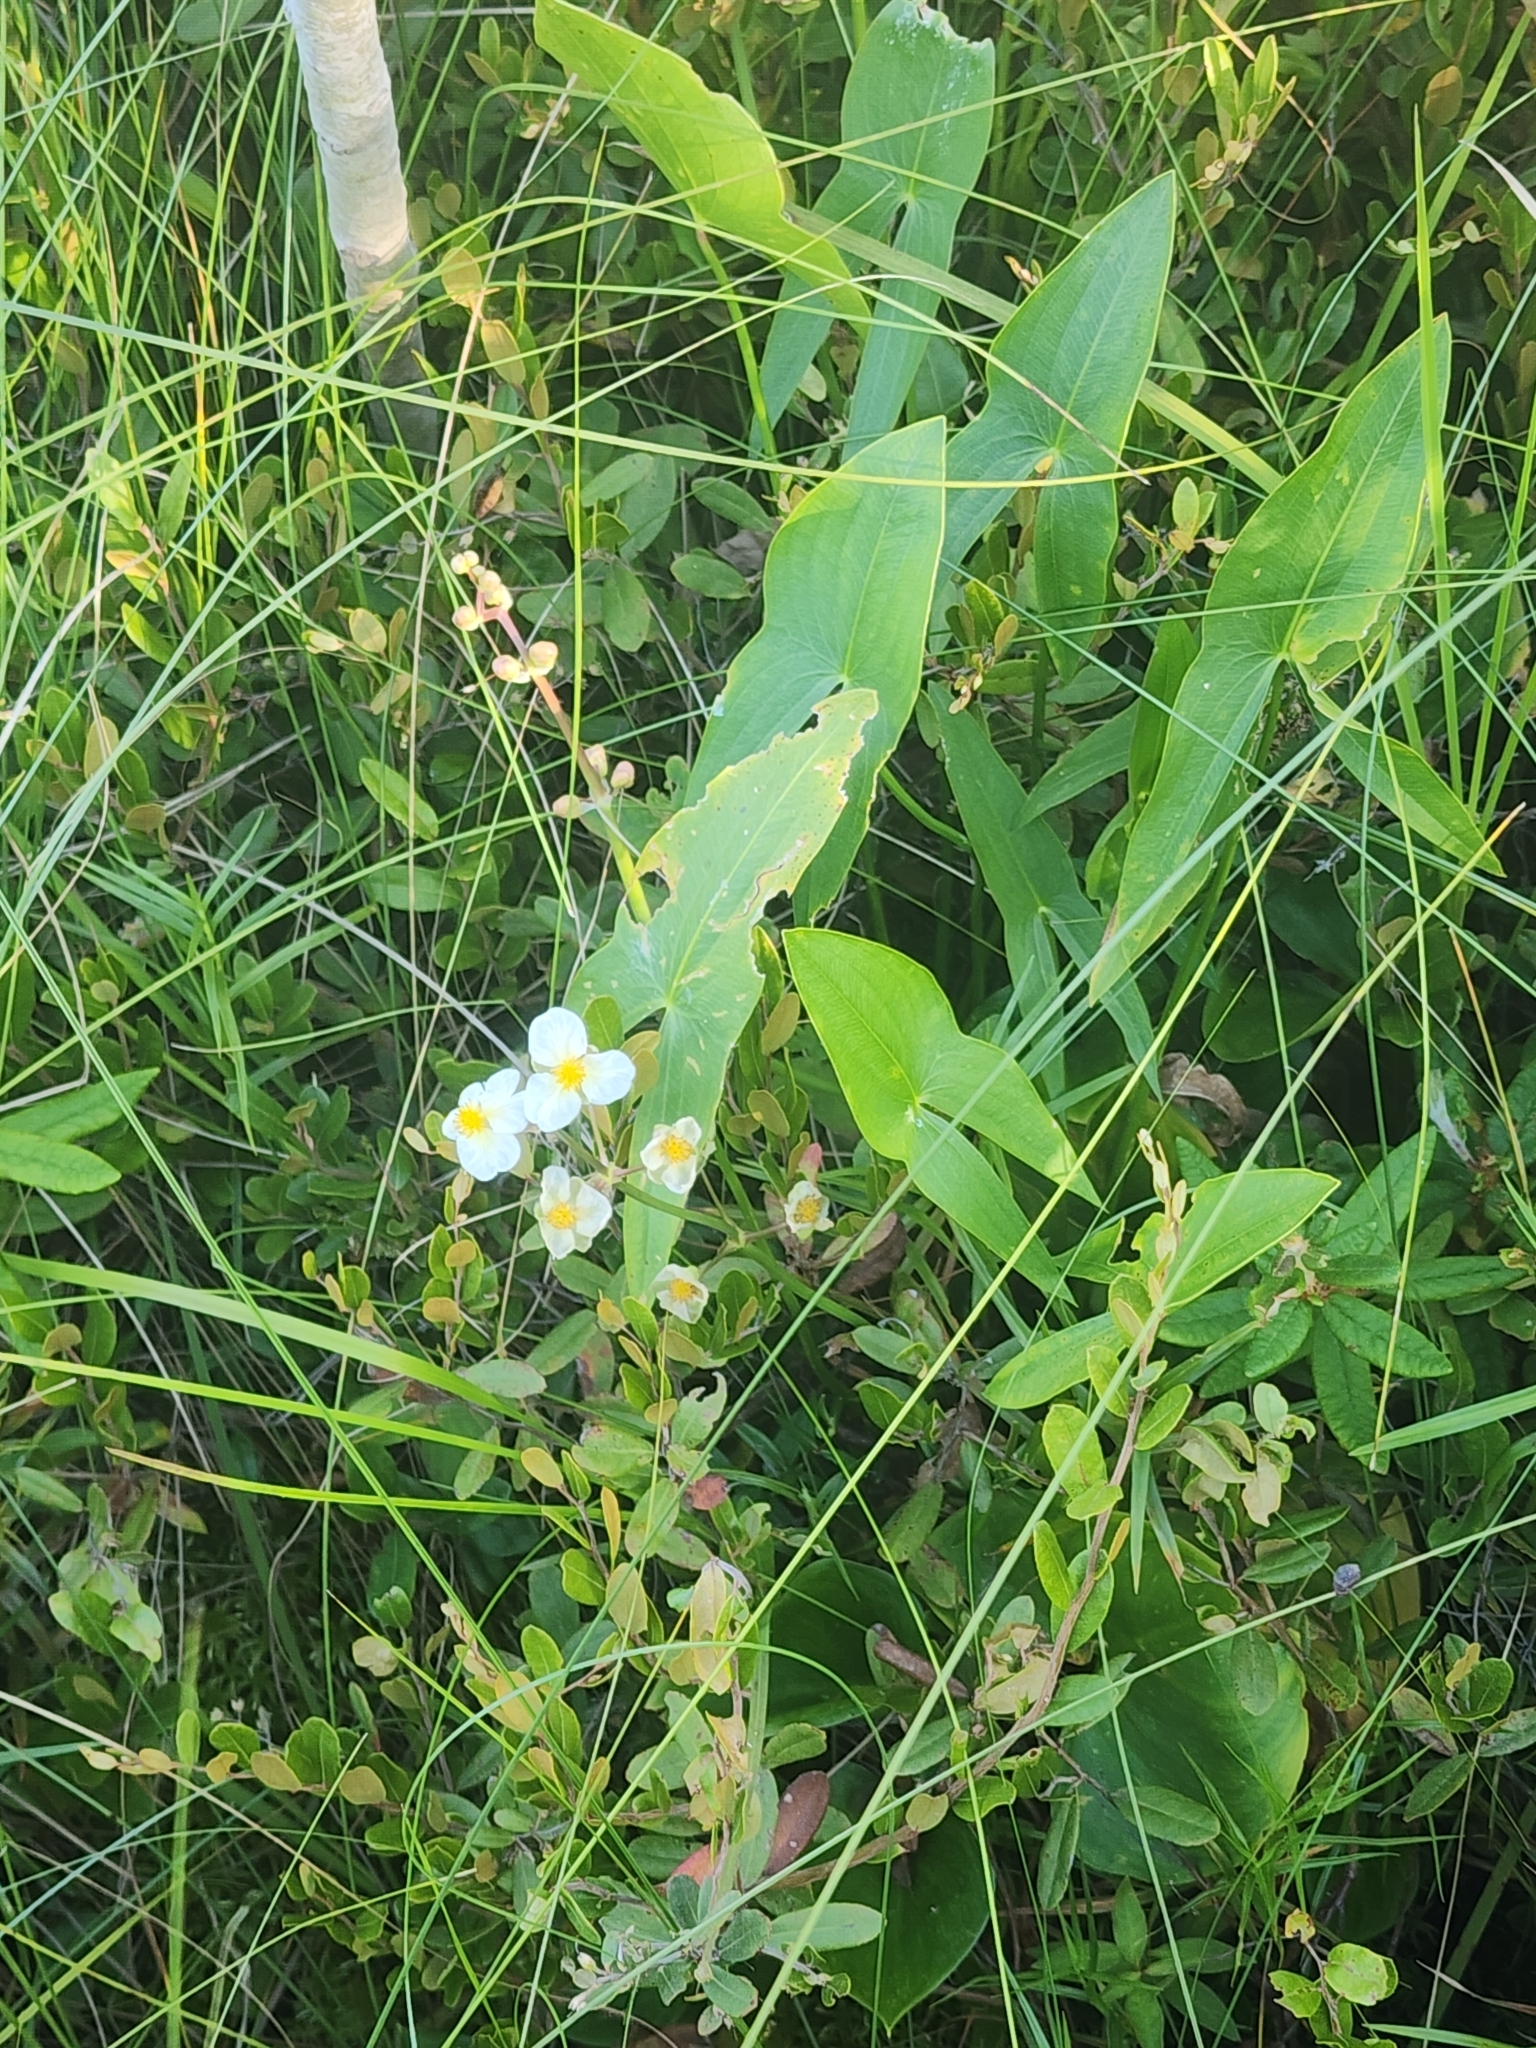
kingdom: Plantae
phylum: Tracheophyta
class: Liliopsida
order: Alismatales
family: Alismataceae
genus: Sagittaria
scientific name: Sagittaria latifolia
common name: Duck-potato
